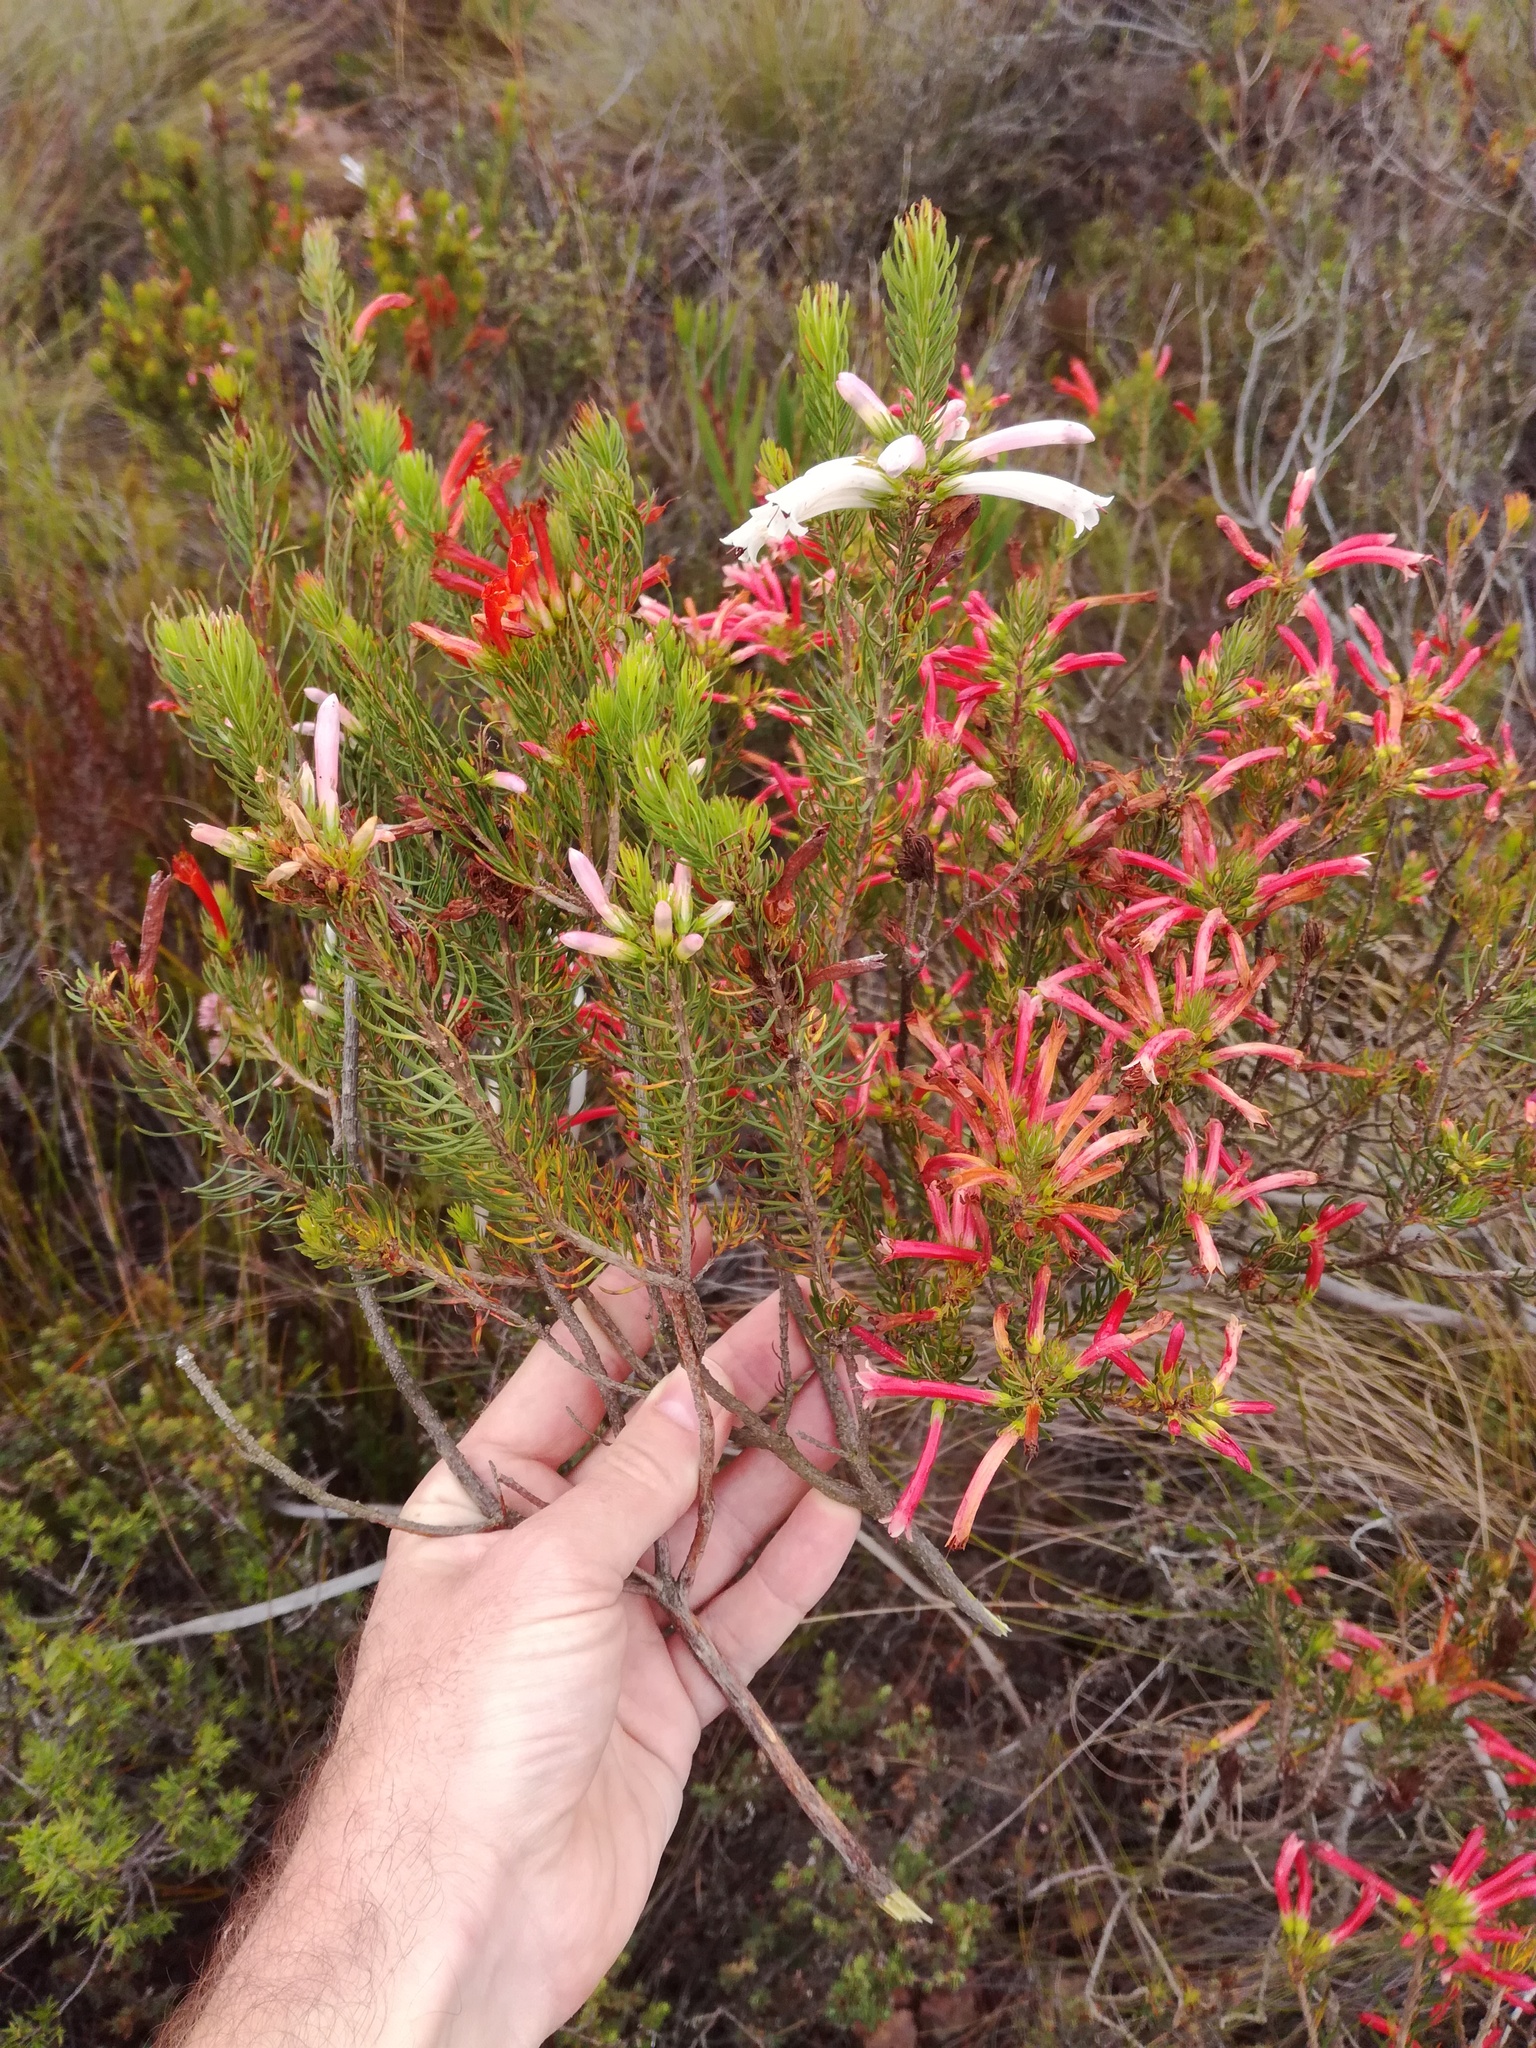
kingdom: Plantae
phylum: Tracheophyta
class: Magnoliopsida
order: Ericales
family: Ericaceae
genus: Erica
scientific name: Erica grandiflora
